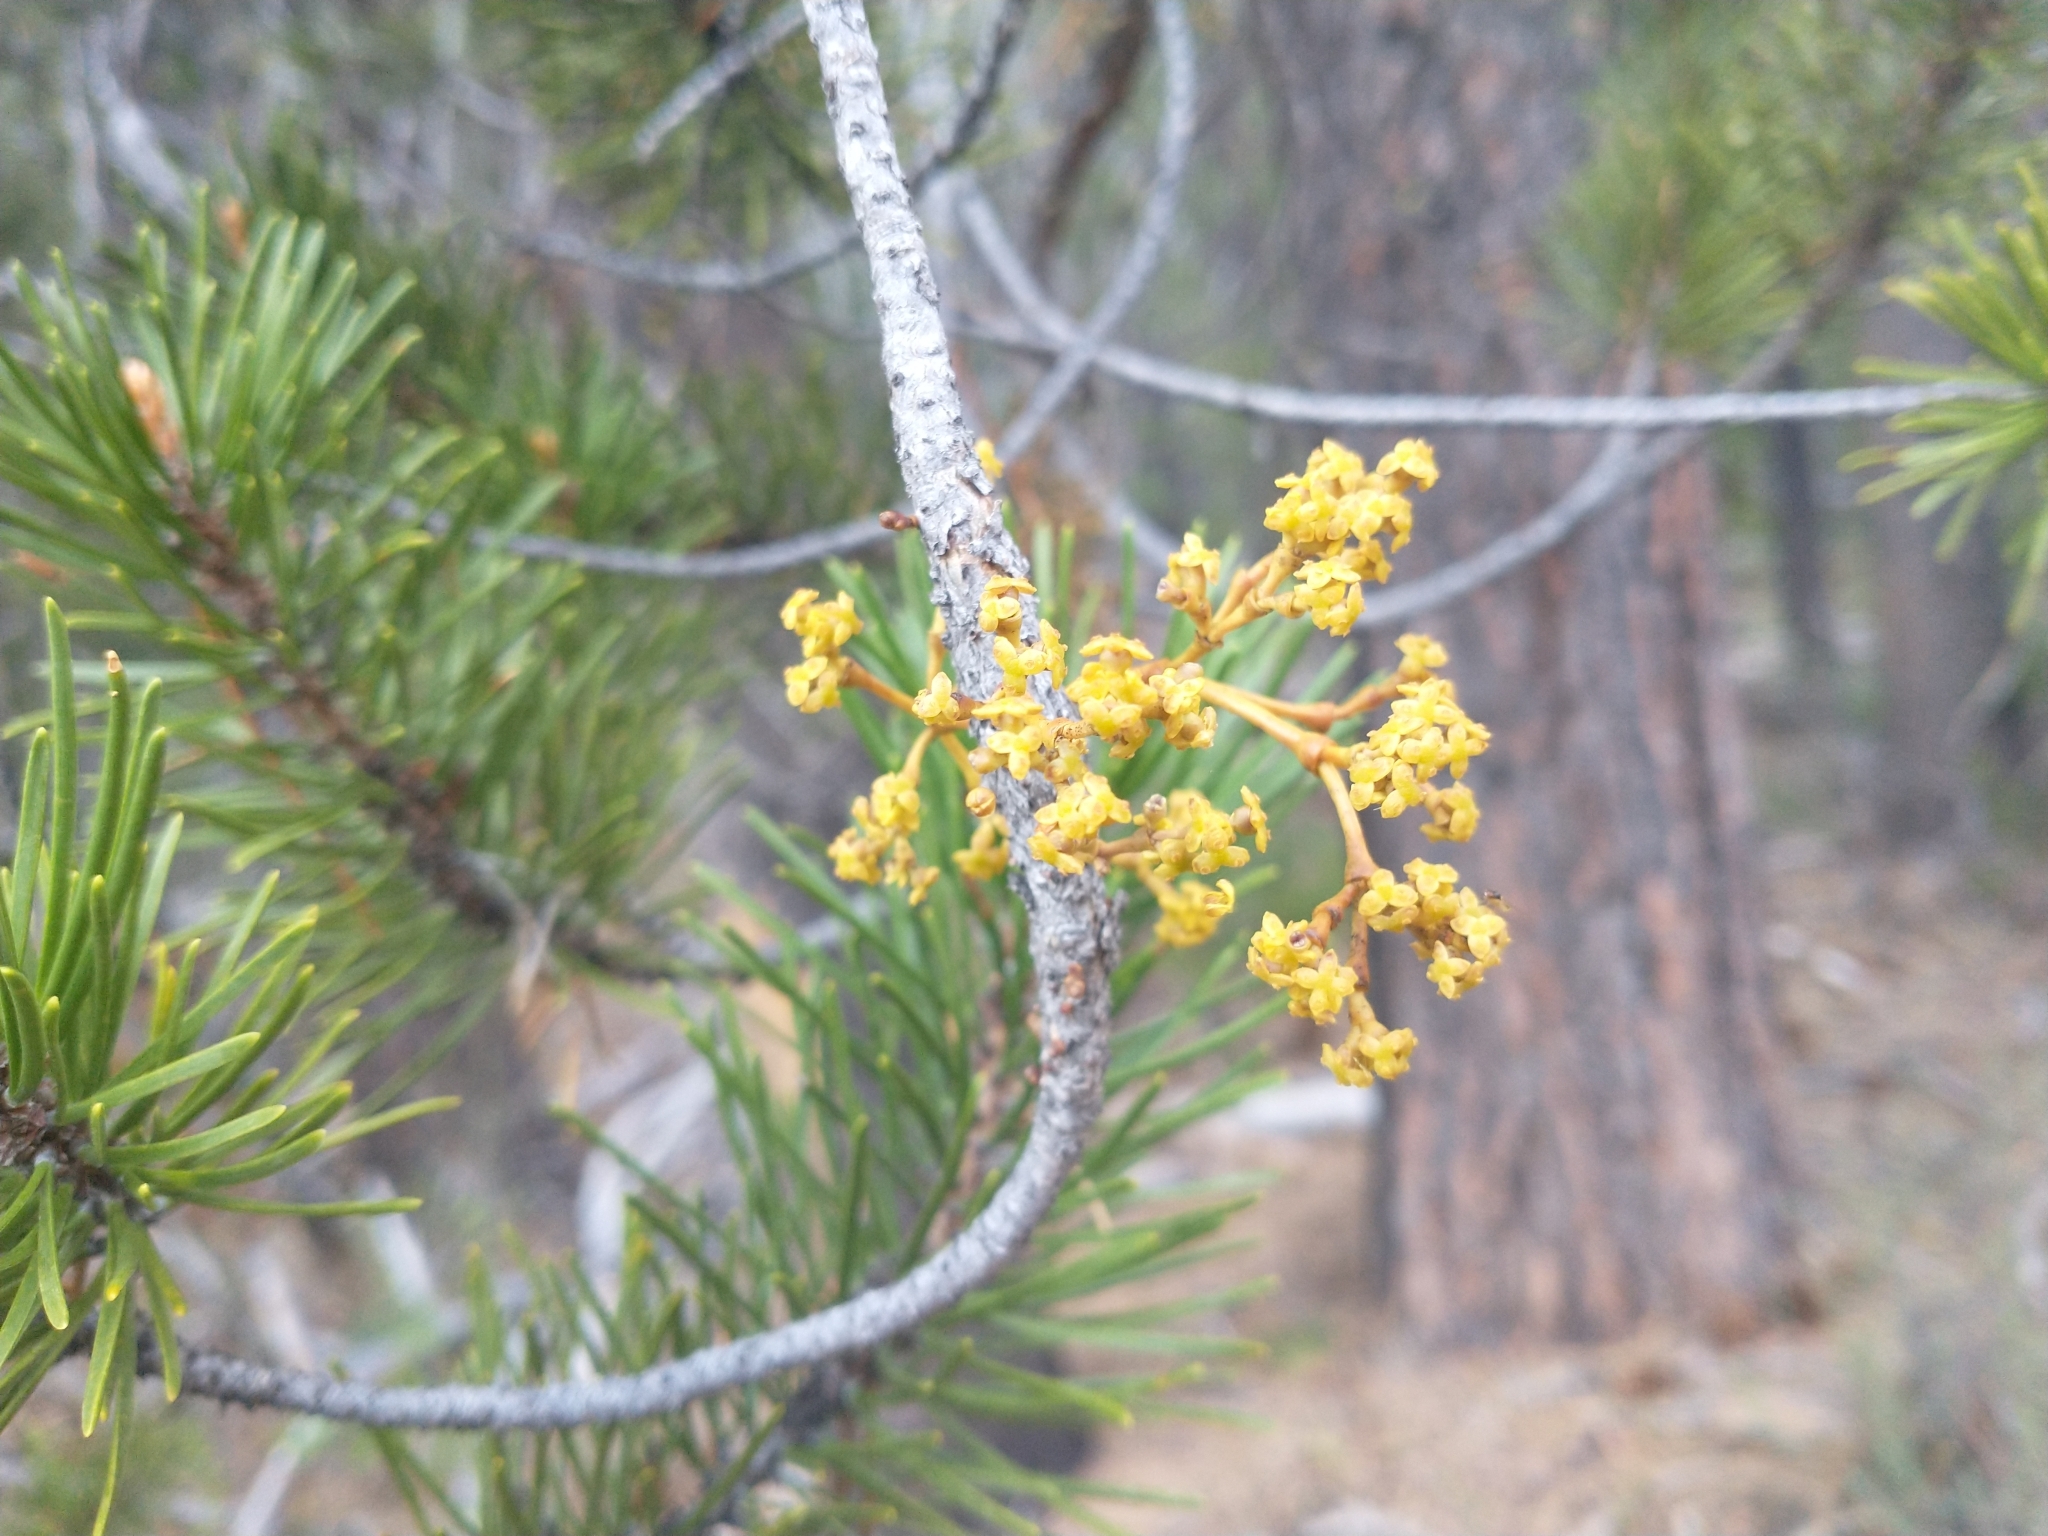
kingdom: Plantae
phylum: Tracheophyta
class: Magnoliopsida
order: Santalales
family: Viscaceae
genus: Arceuthobium
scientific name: Arceuthobium americanum
